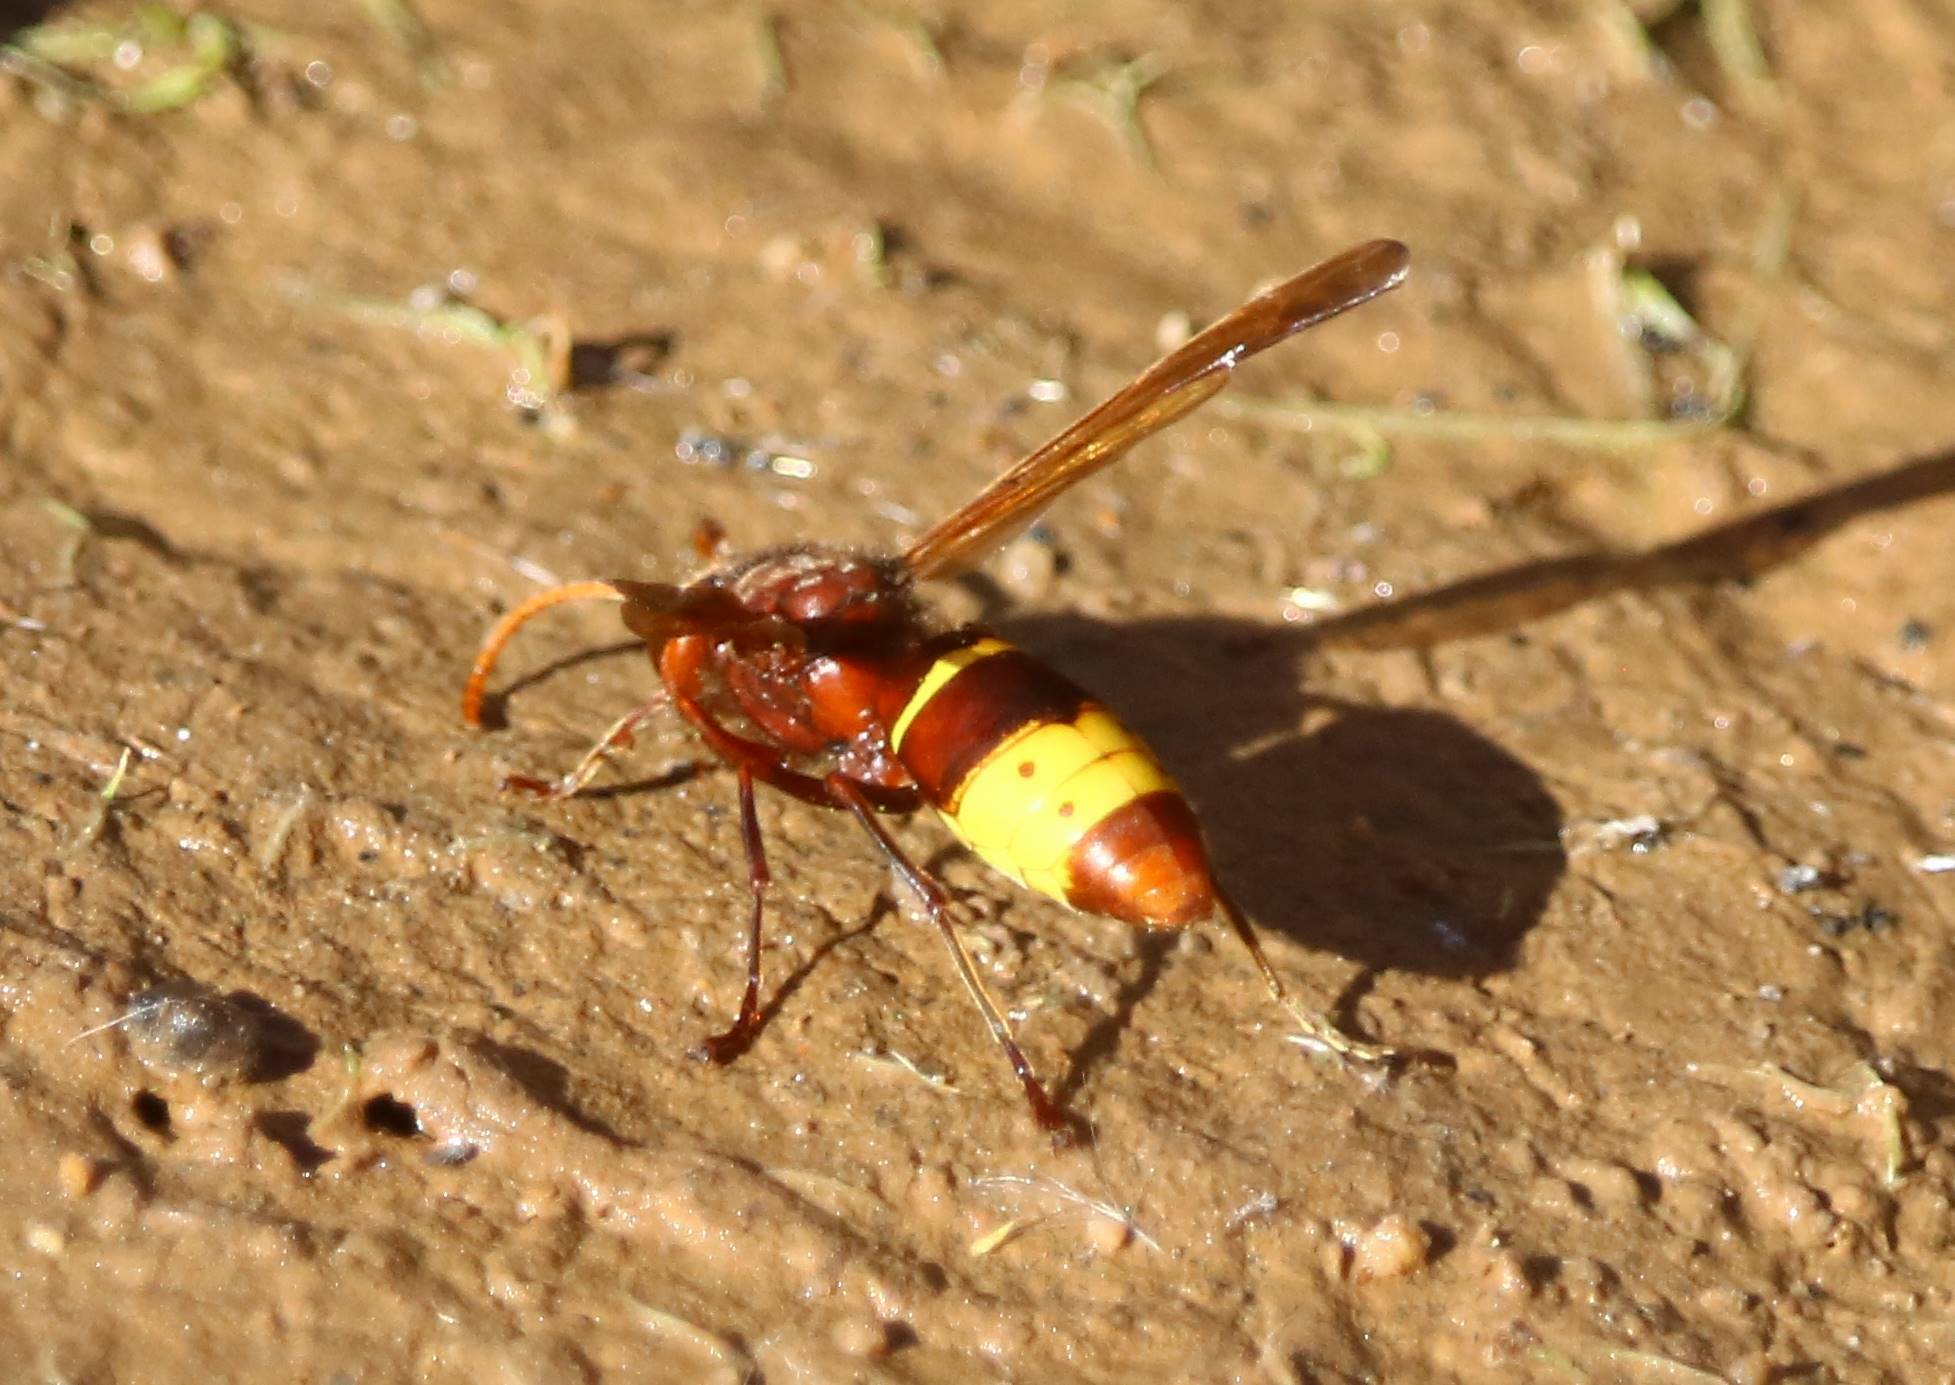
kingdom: Animalia
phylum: Arthropoda
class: Insecta
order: Hymenoptera
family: Vespidae
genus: Vespa
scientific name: Vespa orientalis
